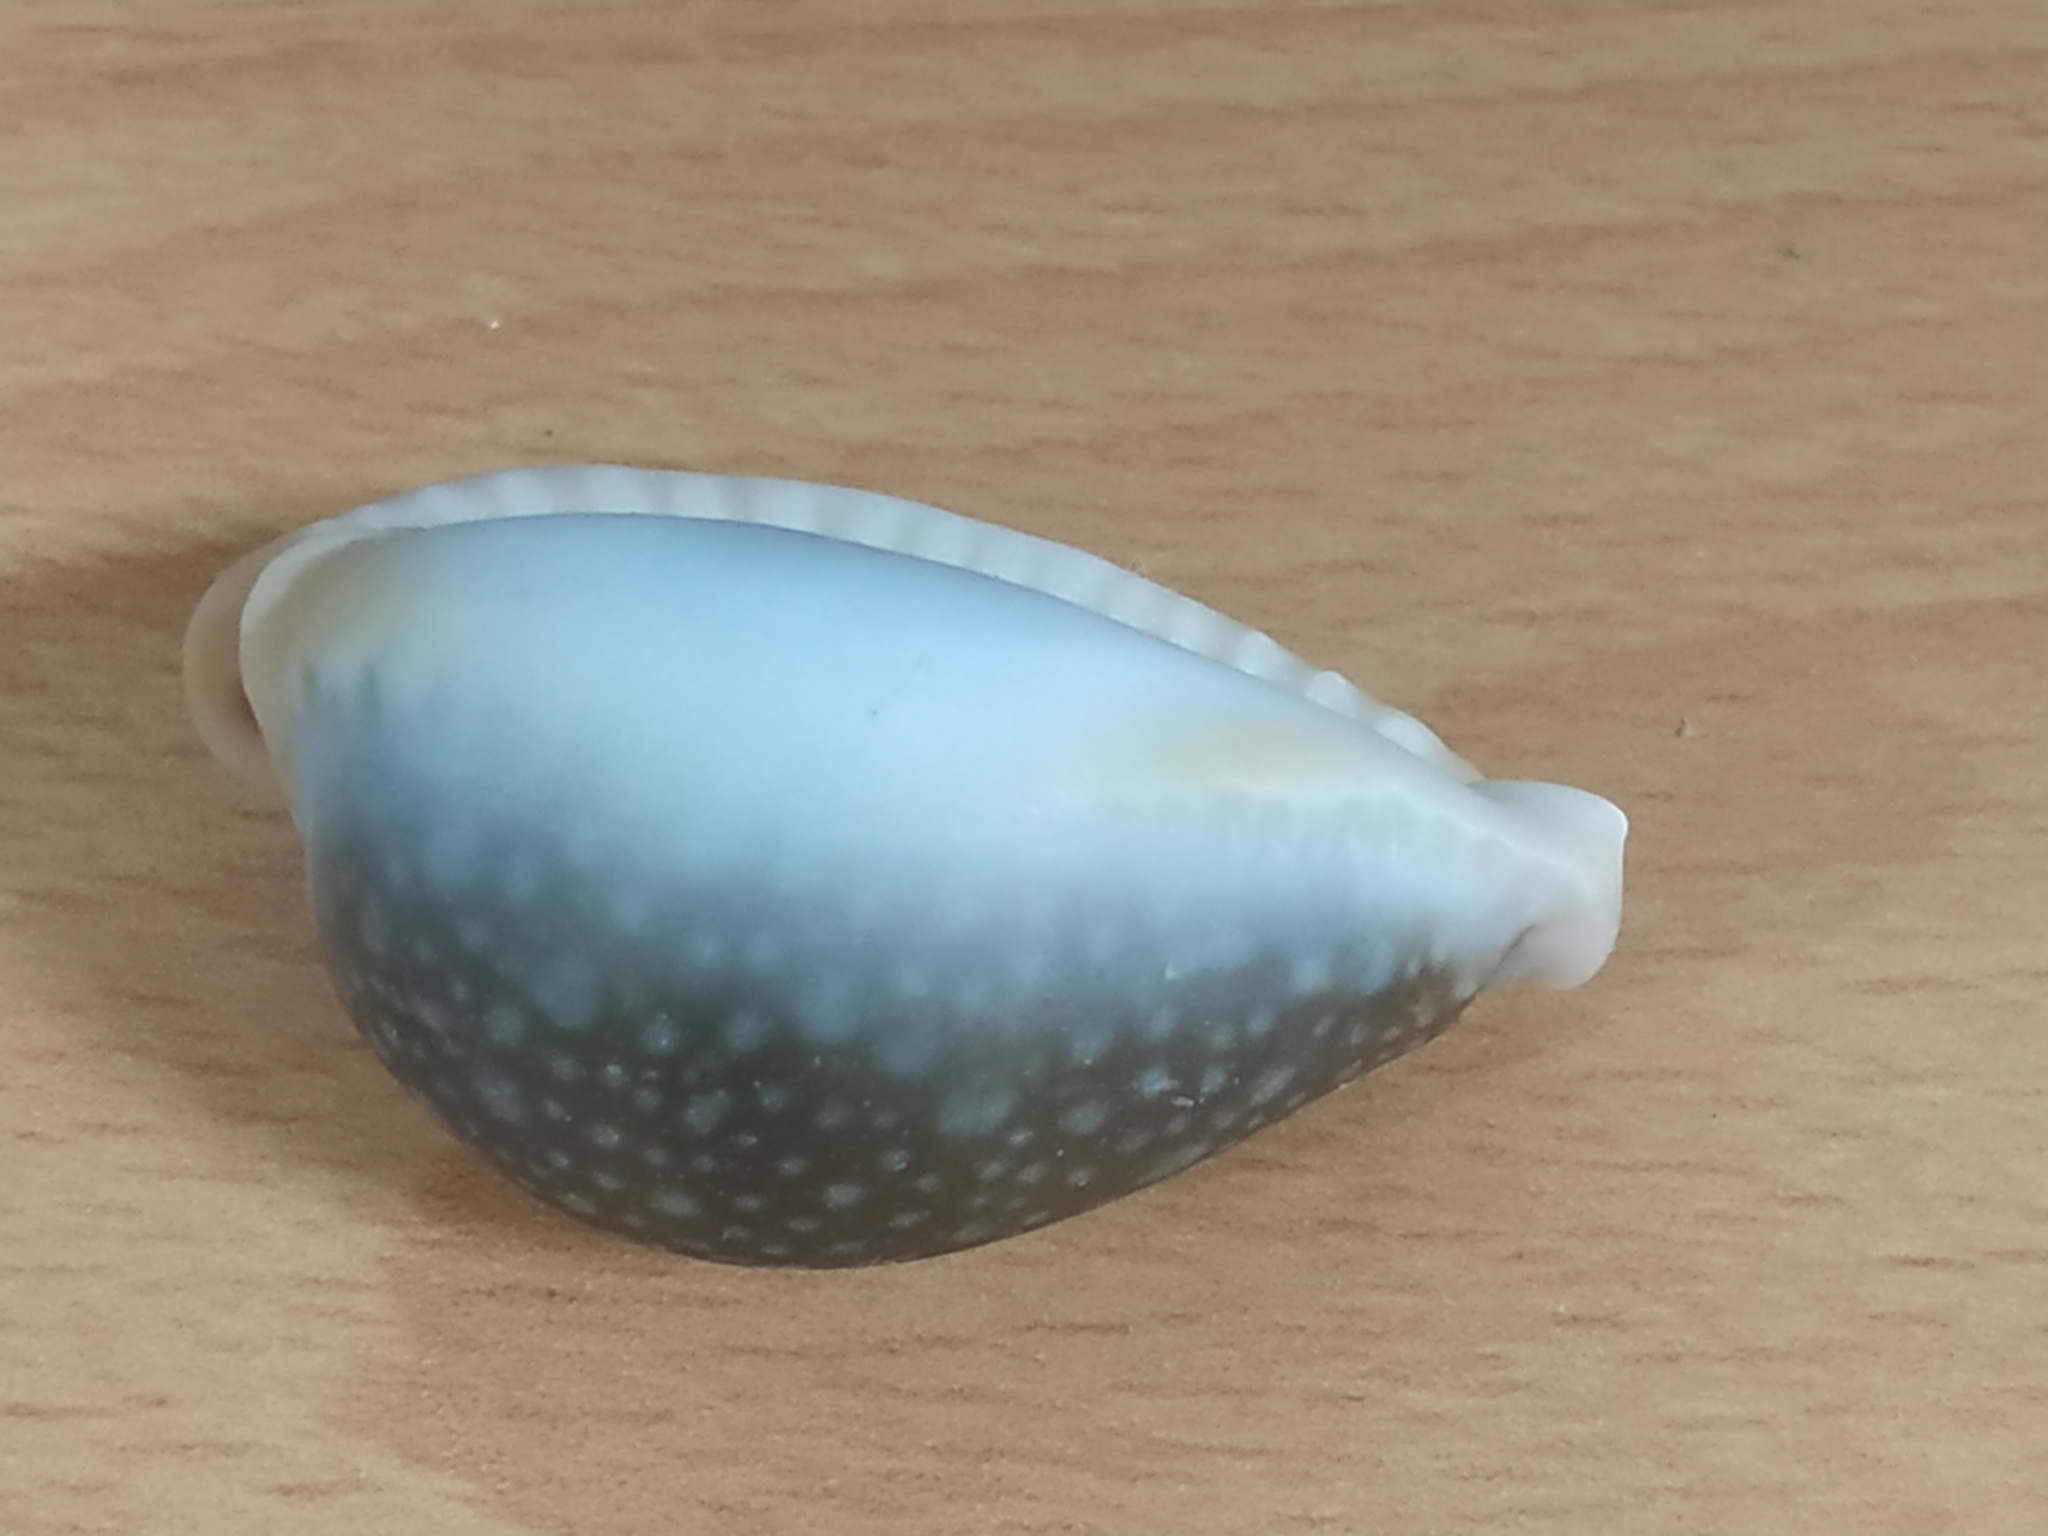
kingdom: Animalia
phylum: Mollusca
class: Gastropoda
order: Littorinimorpha
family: Cypraeidae
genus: Naria
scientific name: Naria miliaris
